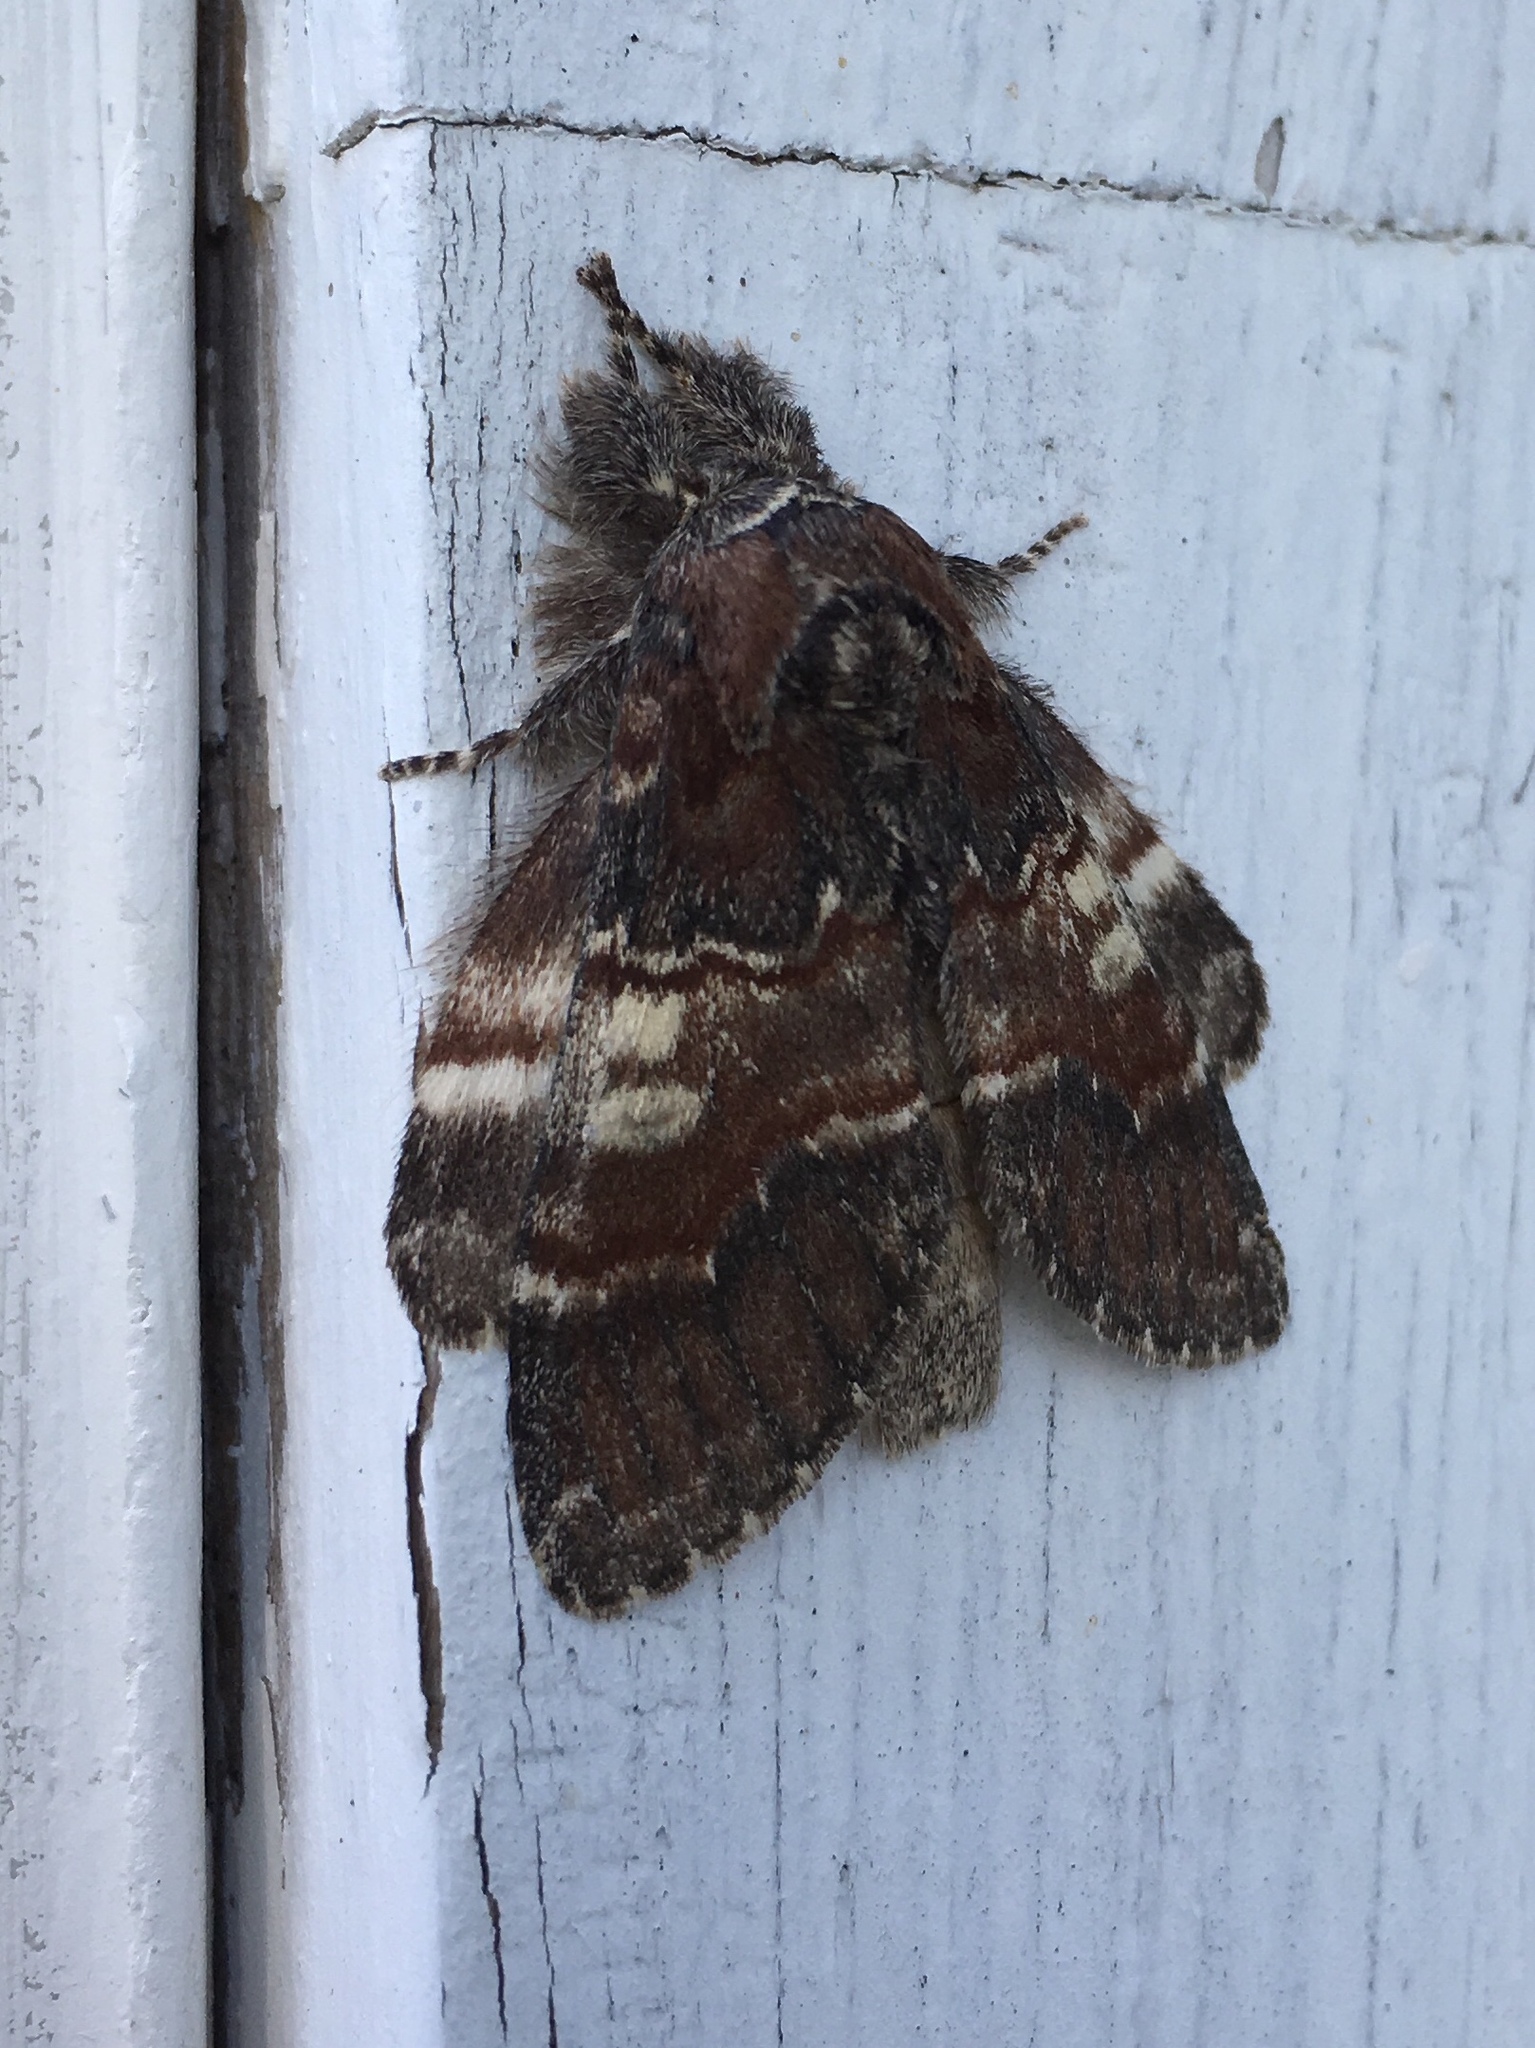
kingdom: Animalia
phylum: Arthropoda
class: Insecta
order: Lepidoptera
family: Notodontidae
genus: Peridea
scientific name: Peridea ferruginea
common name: Chocolate prominent
